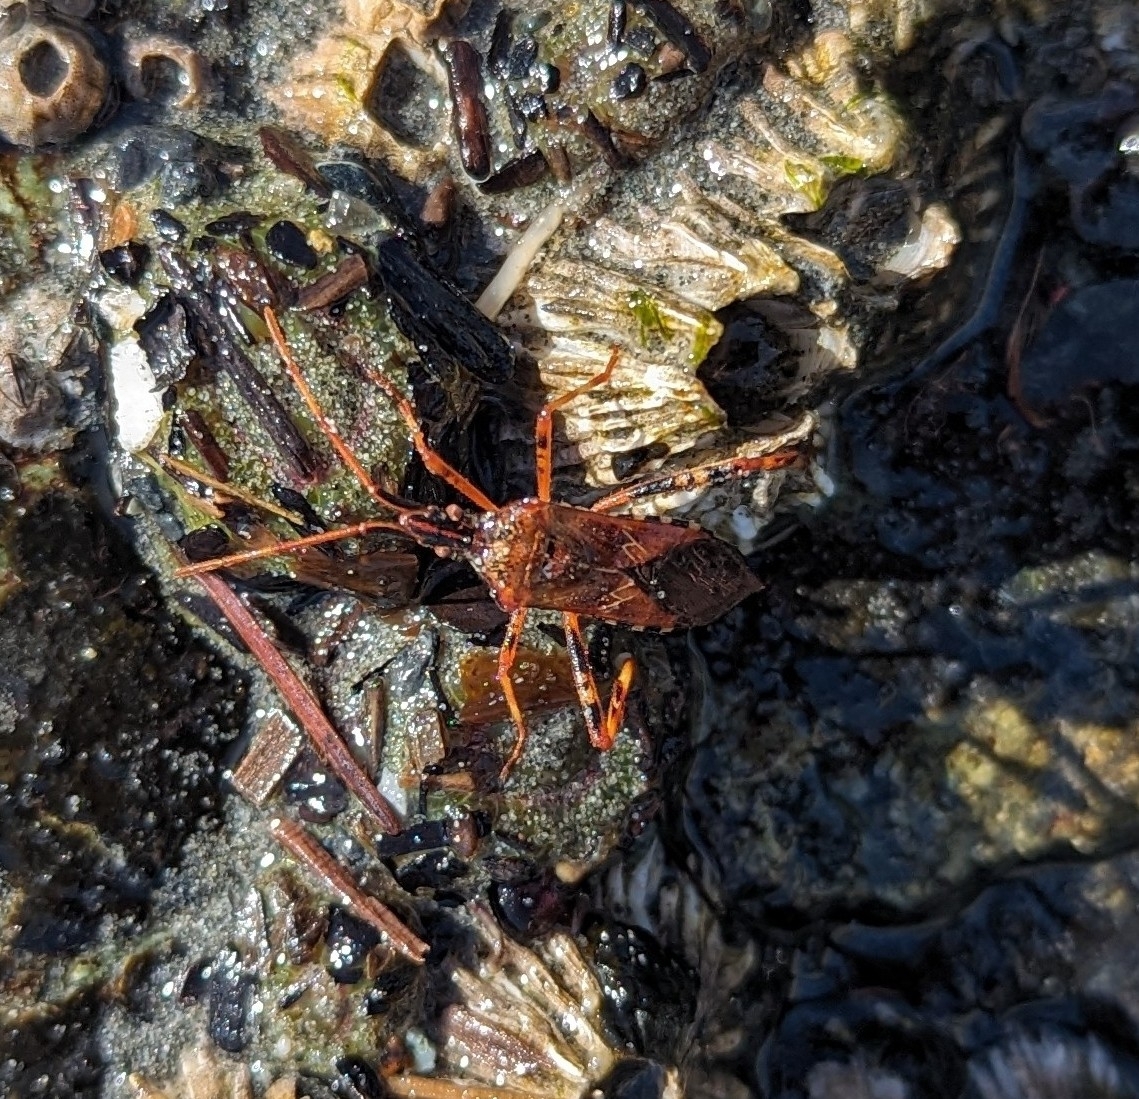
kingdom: Animalia
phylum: Arthropoda
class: Insecta
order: Hemiptera
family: Coreidae
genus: Leptoglossus
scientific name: Leptoglossus occidentalis
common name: Western conifer-seed bug
